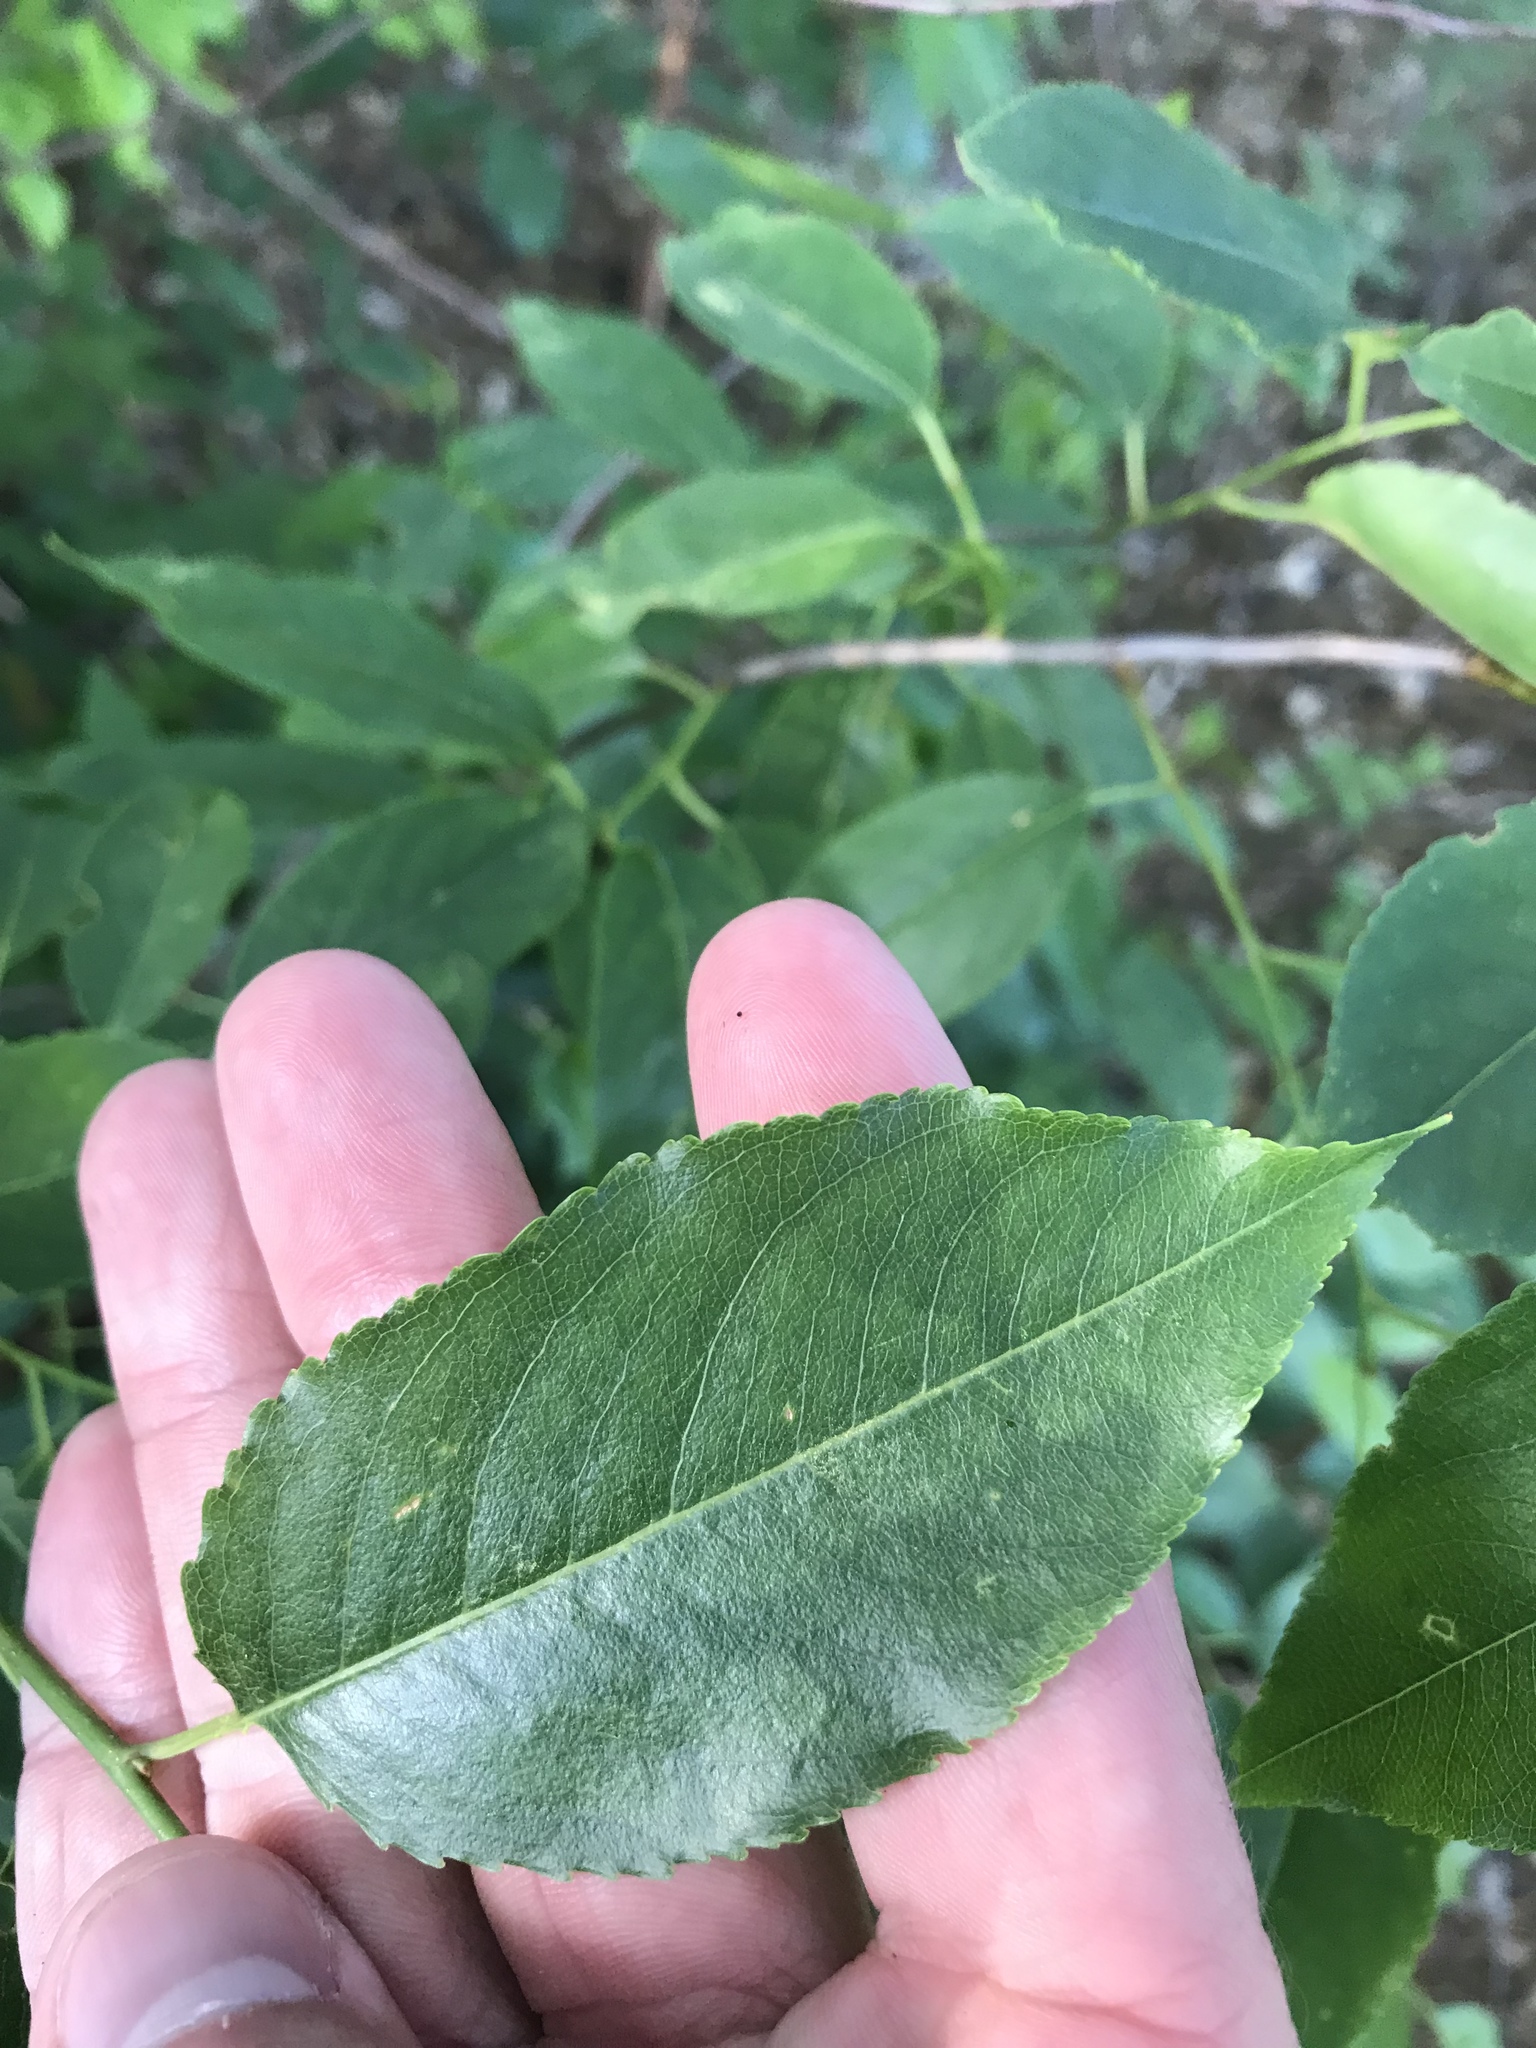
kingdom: Plantae
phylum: Tracheophyta
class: Magnoliopsida
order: Rosales
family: Rosaceae
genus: Prunus
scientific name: Prunus serotina
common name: Black cherry
